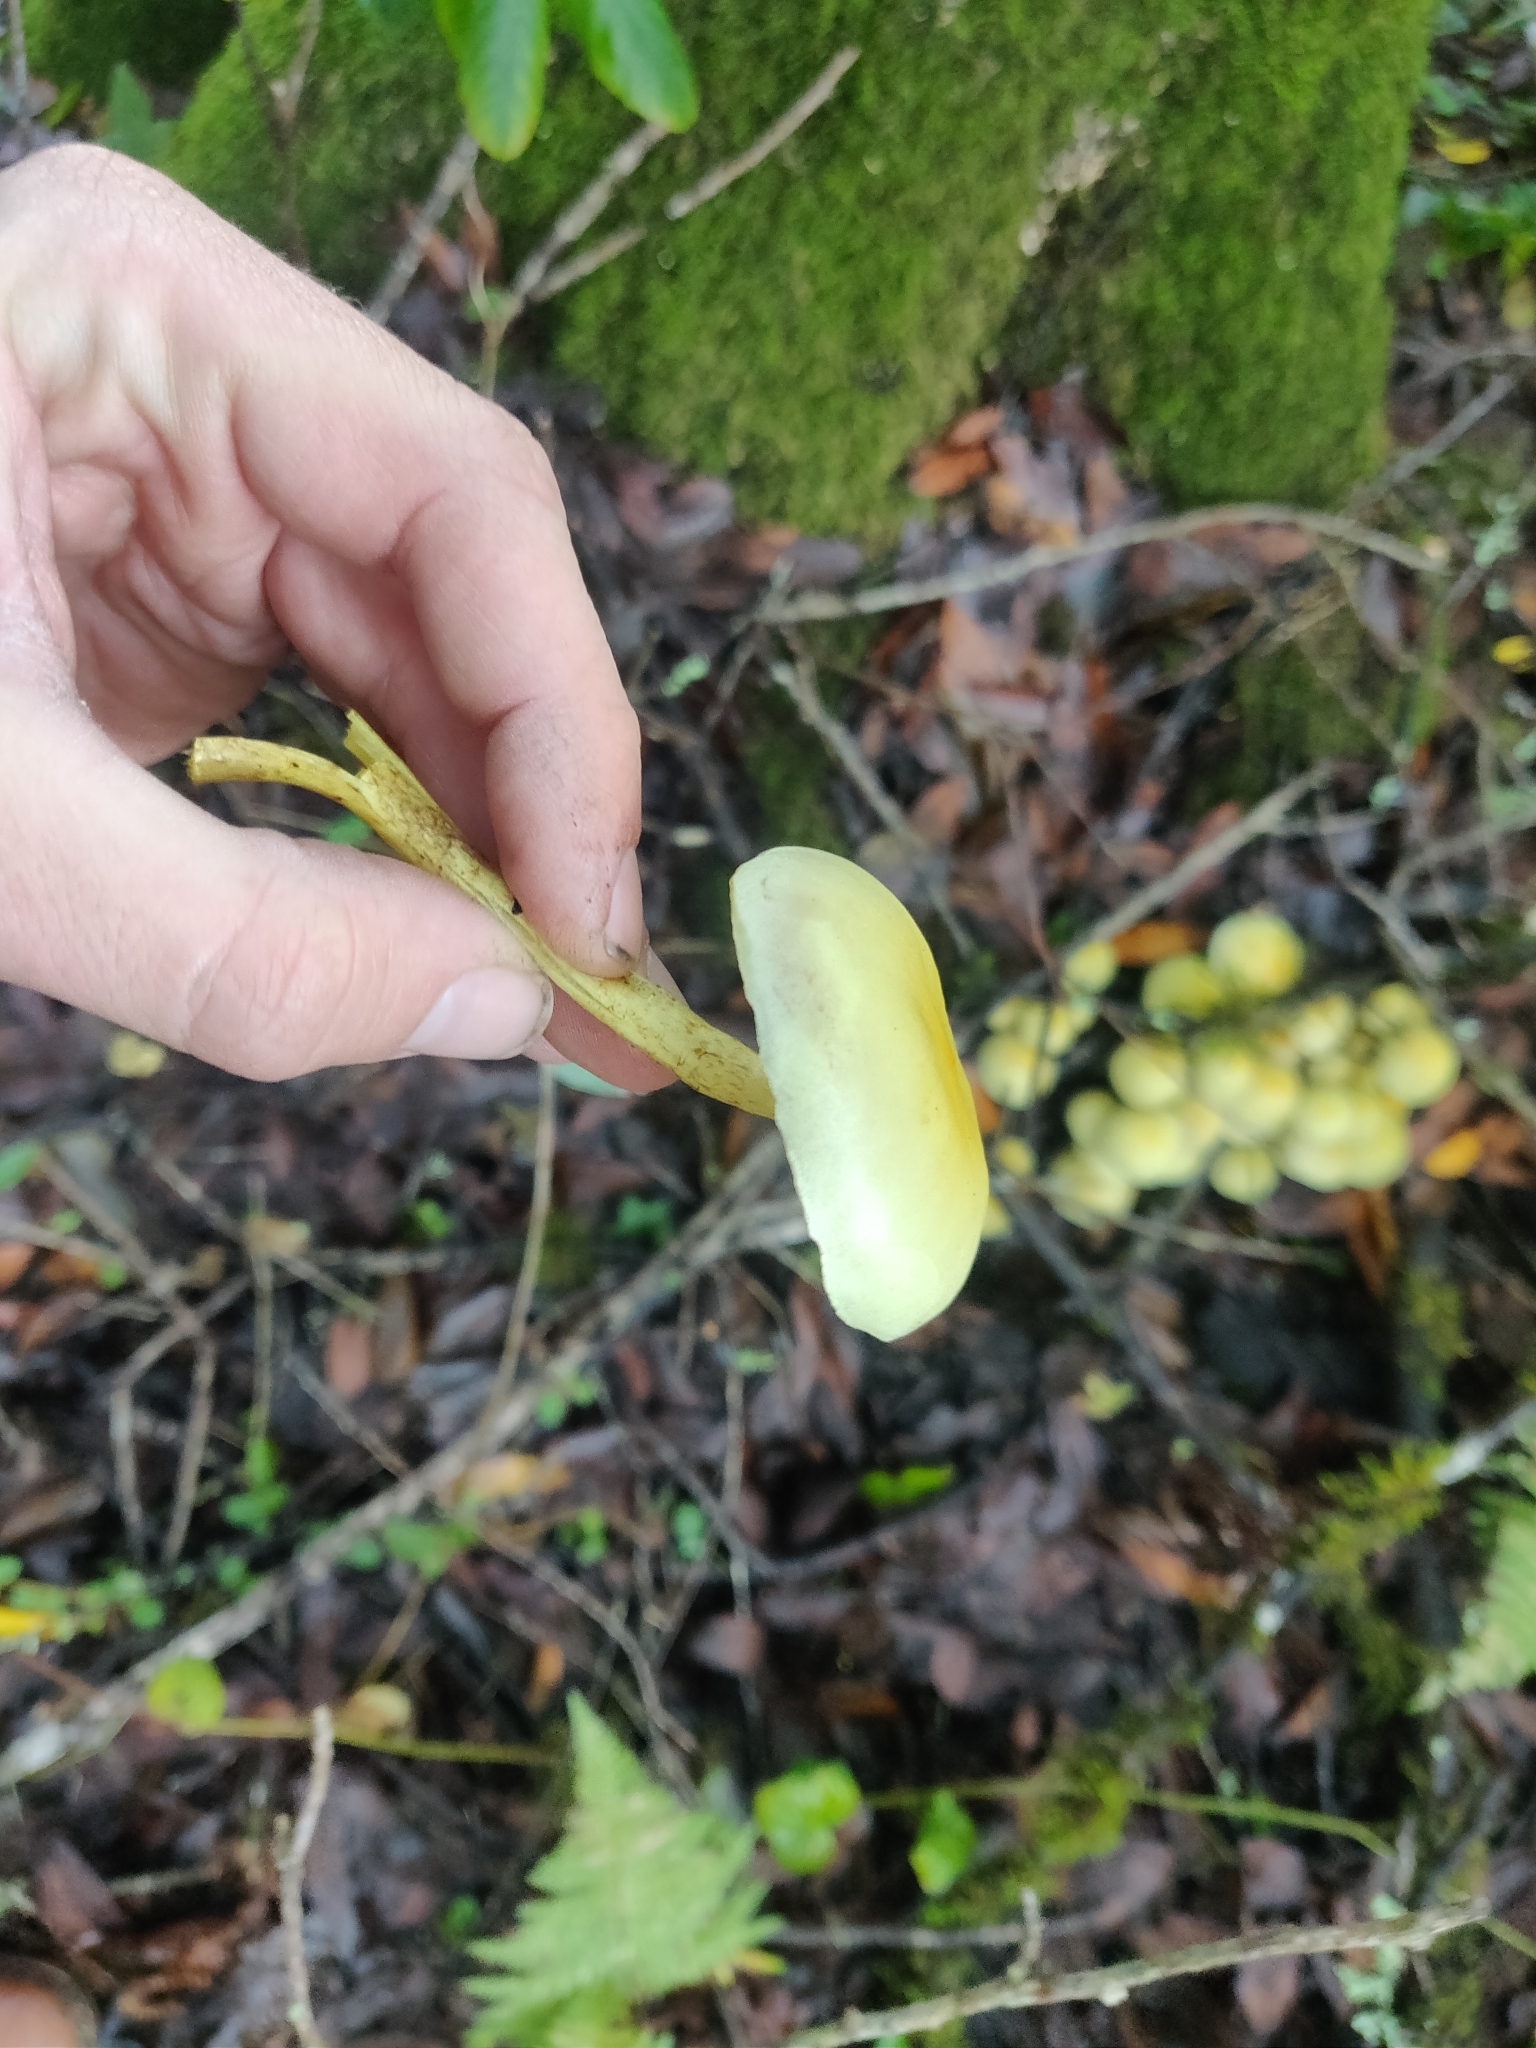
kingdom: Fungi
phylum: Basidiomycota
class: Agaricomycetes
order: Agaricales
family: Strophariaceae
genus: Hypholoma
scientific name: Hypholoma fasciculare
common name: Sulphur tuft
